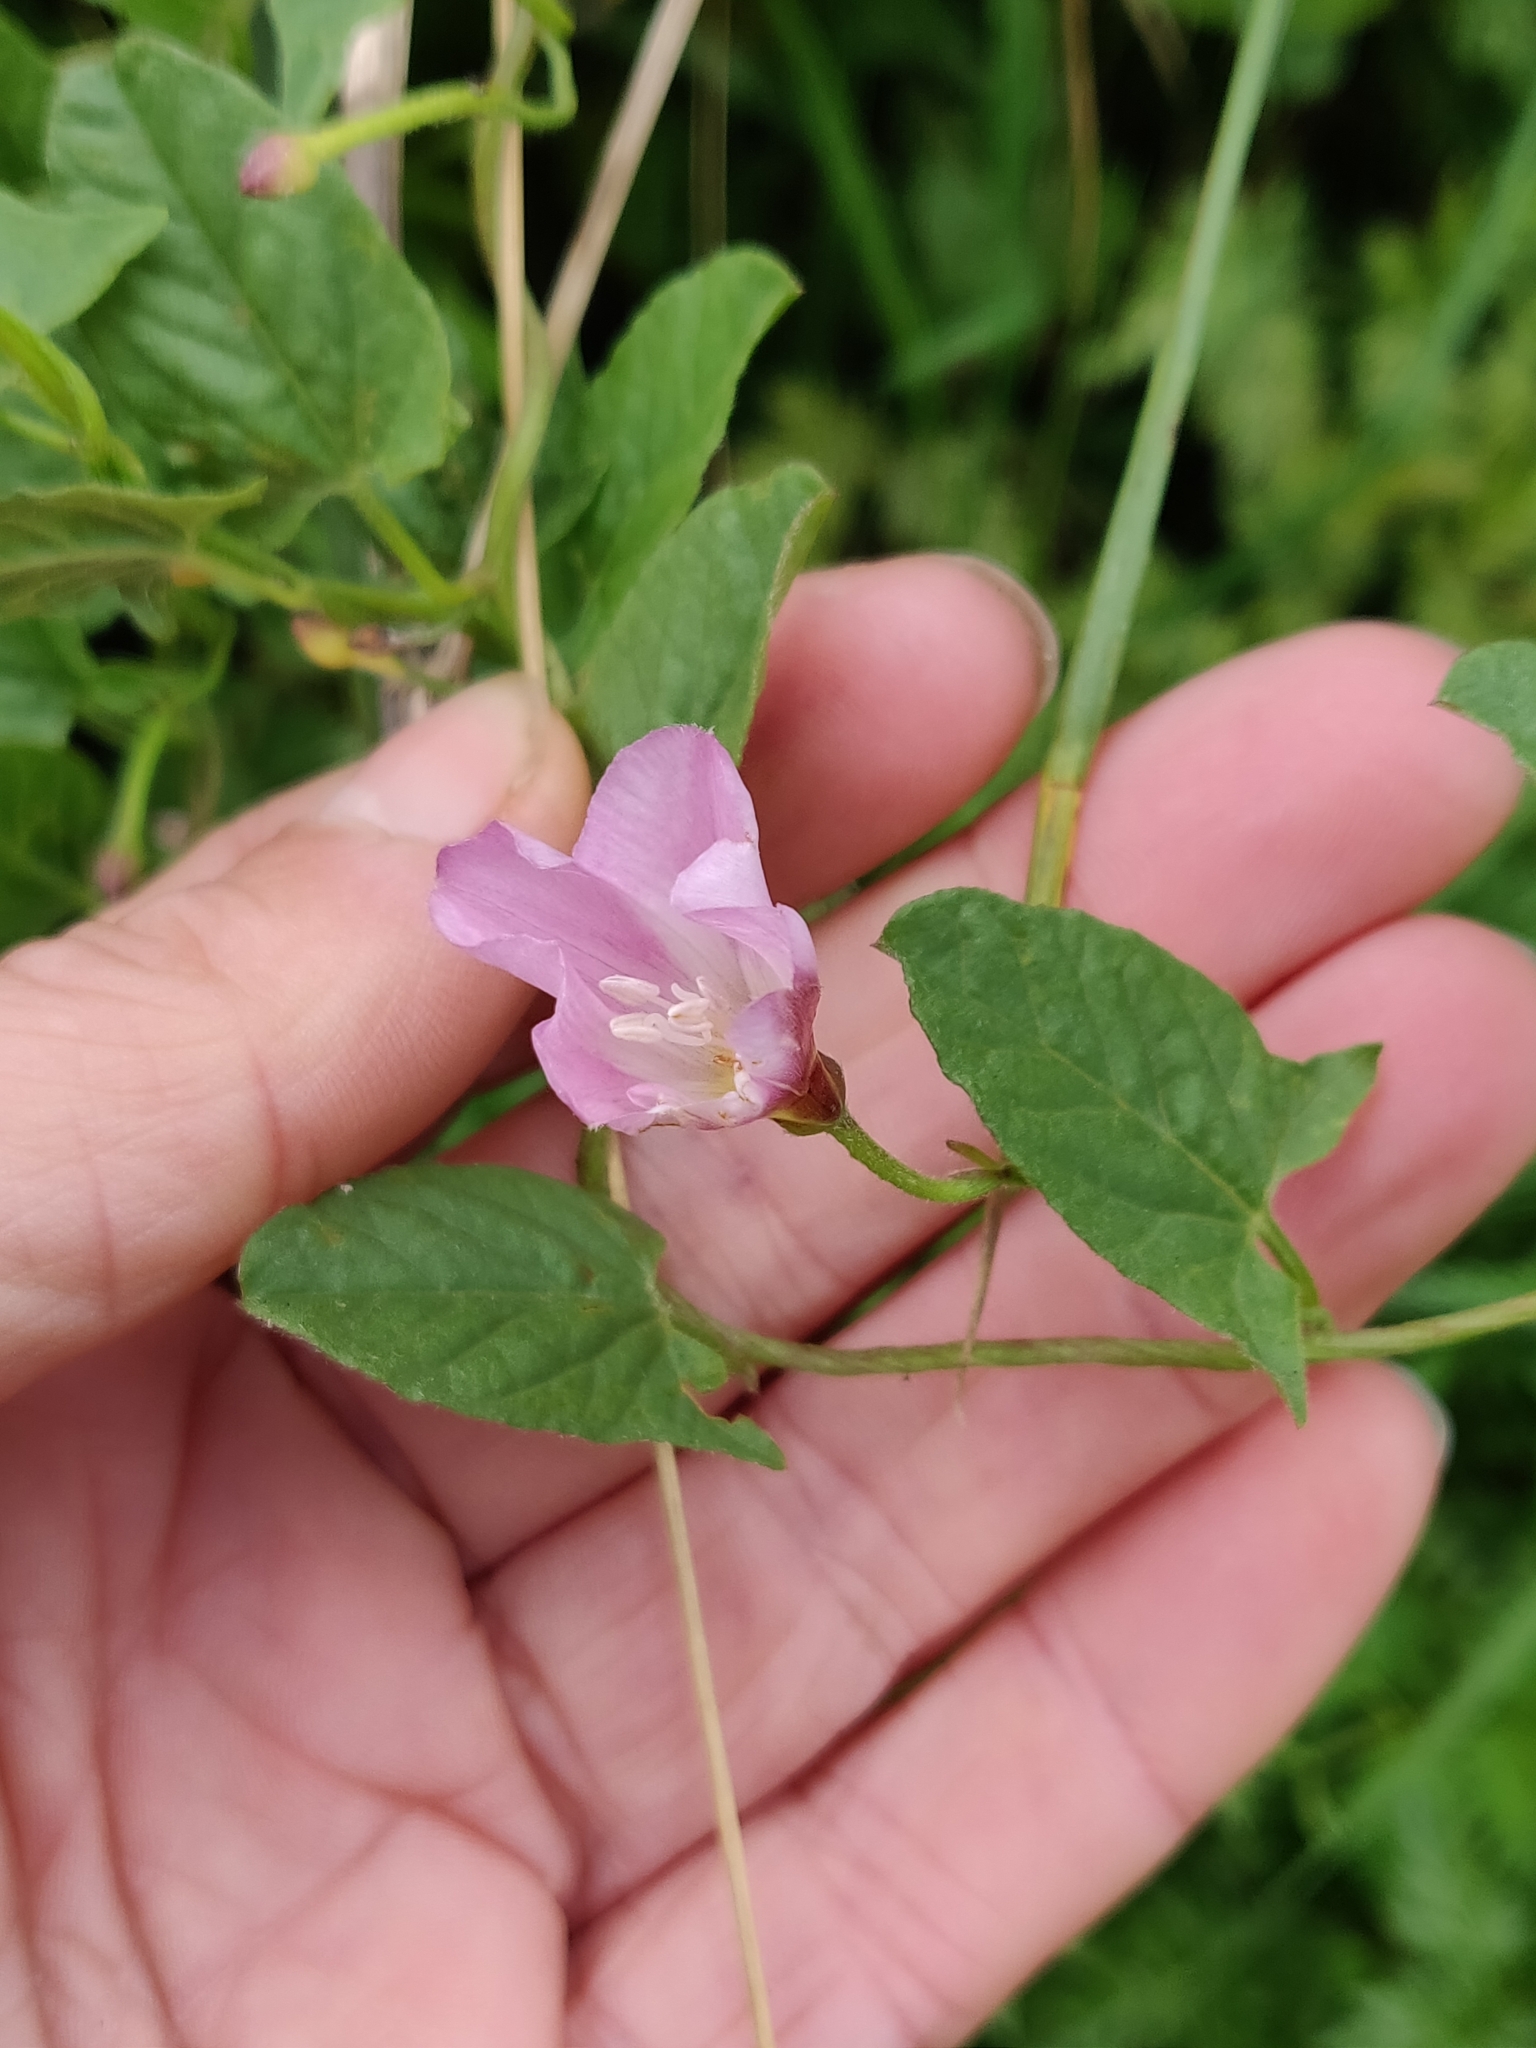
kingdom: Plantae
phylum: Tracheophyta
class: Magnoliopsida
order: Solanales
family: Convolvulaceae
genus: Convolvulus
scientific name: Convolvulus arvensis
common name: Field bindweed
